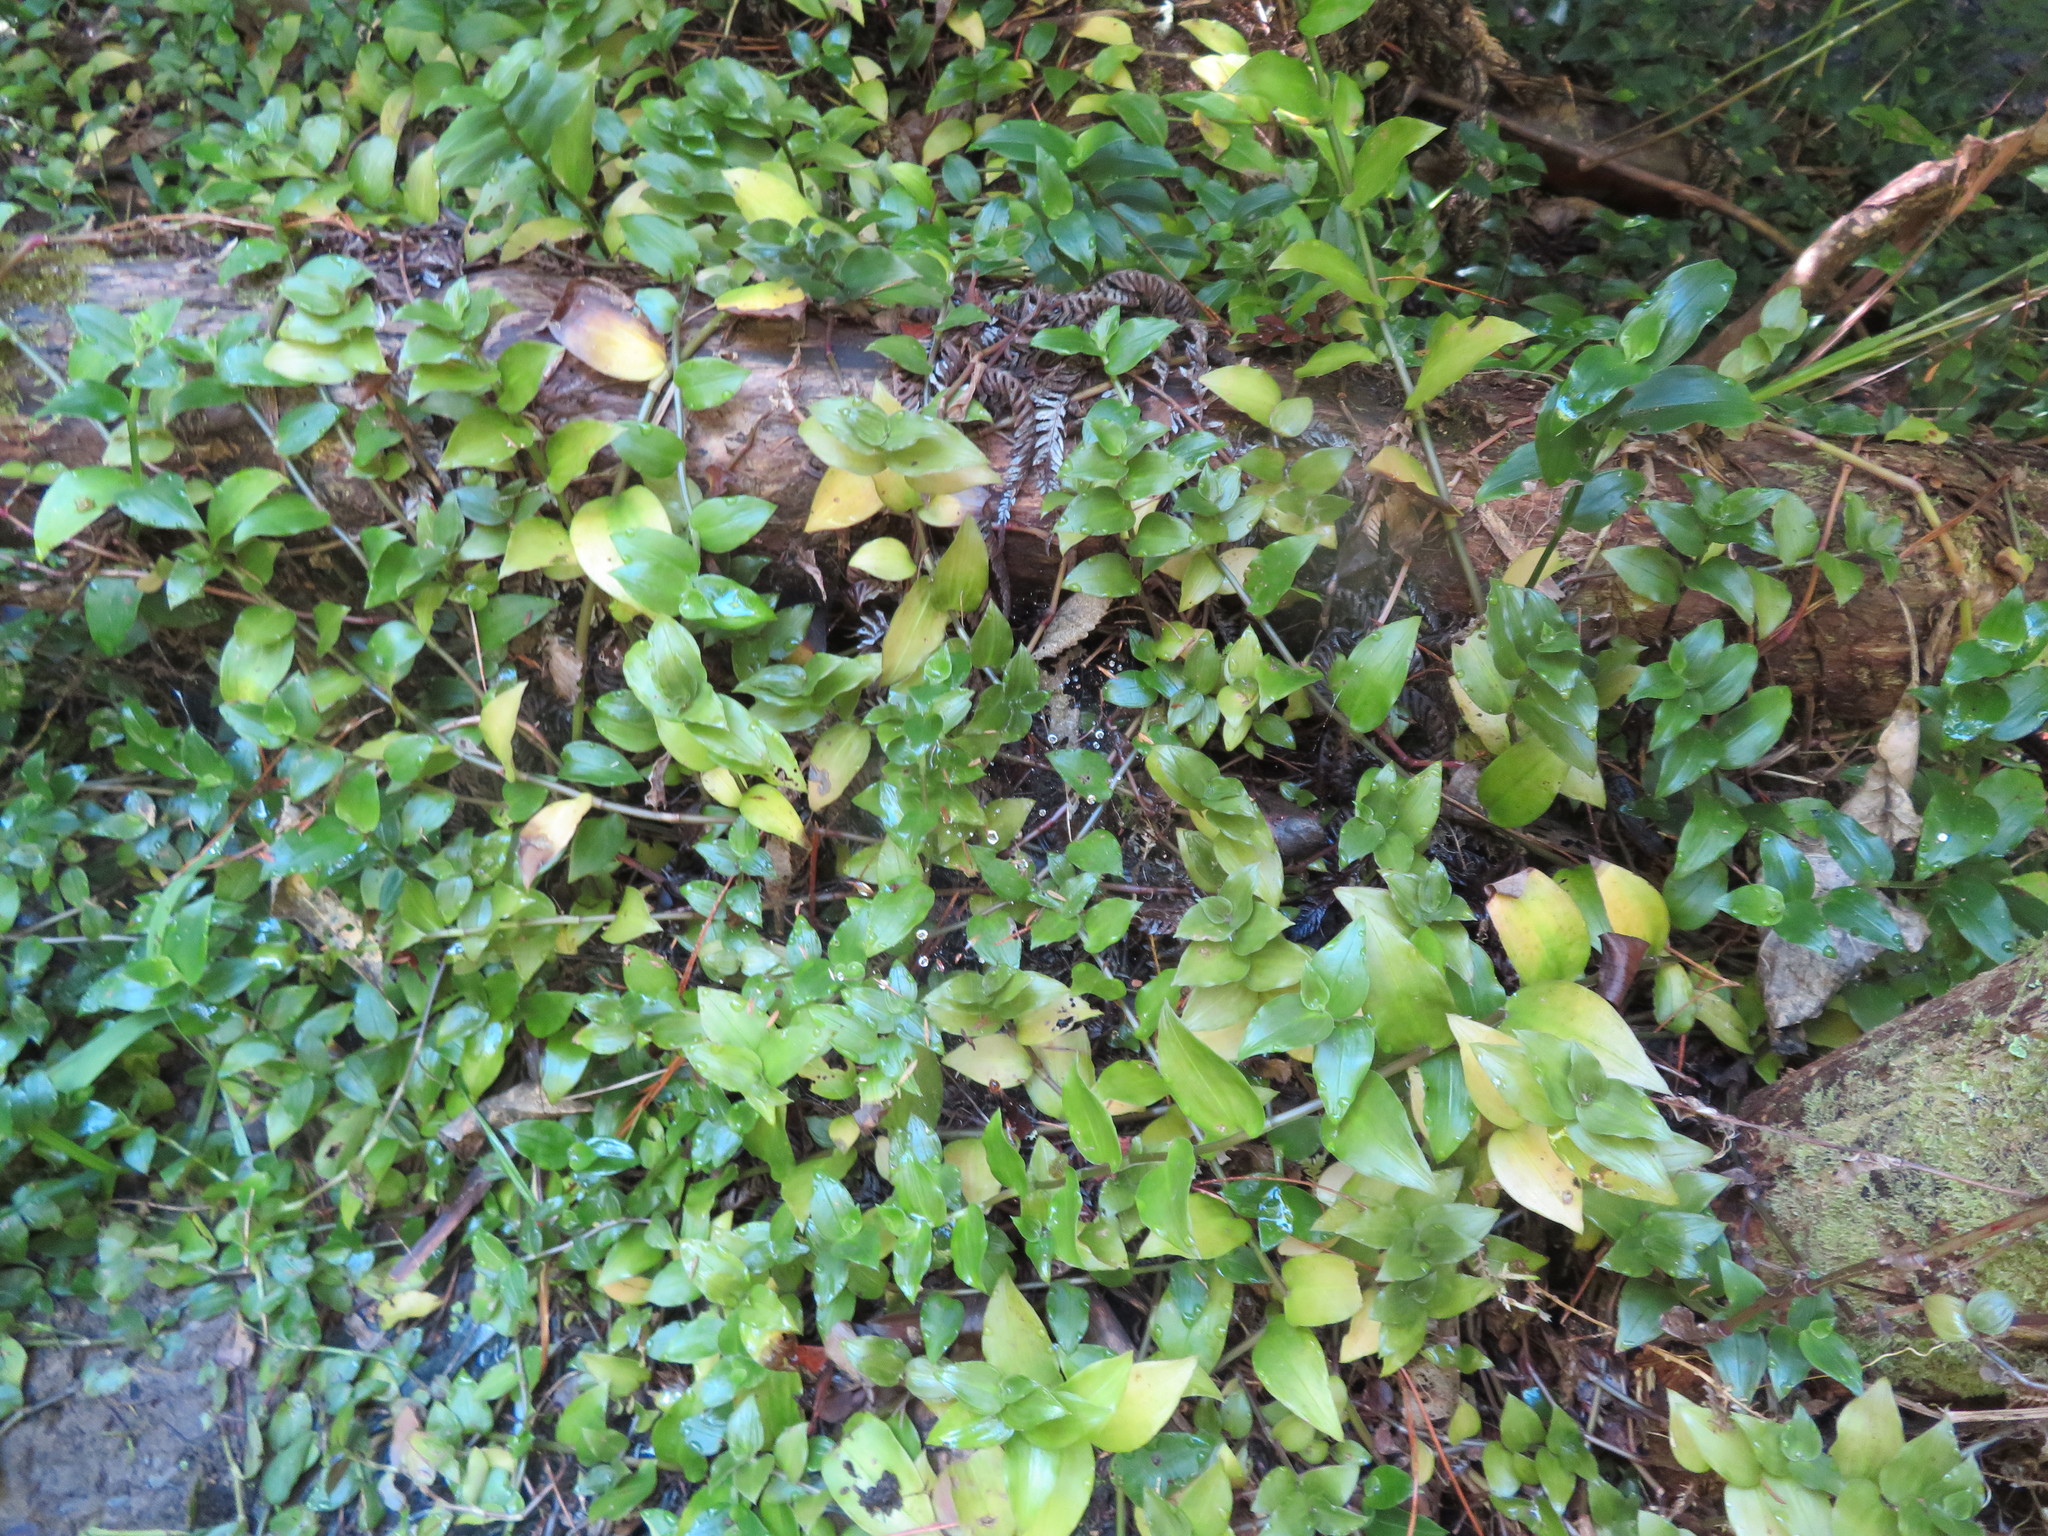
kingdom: Plantae
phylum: Tracheophyta
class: Liliopsida
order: Commelinales
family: Commelinaceae
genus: Tradescantia
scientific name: Tradescantia fluminensis
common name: Wandering-jew
